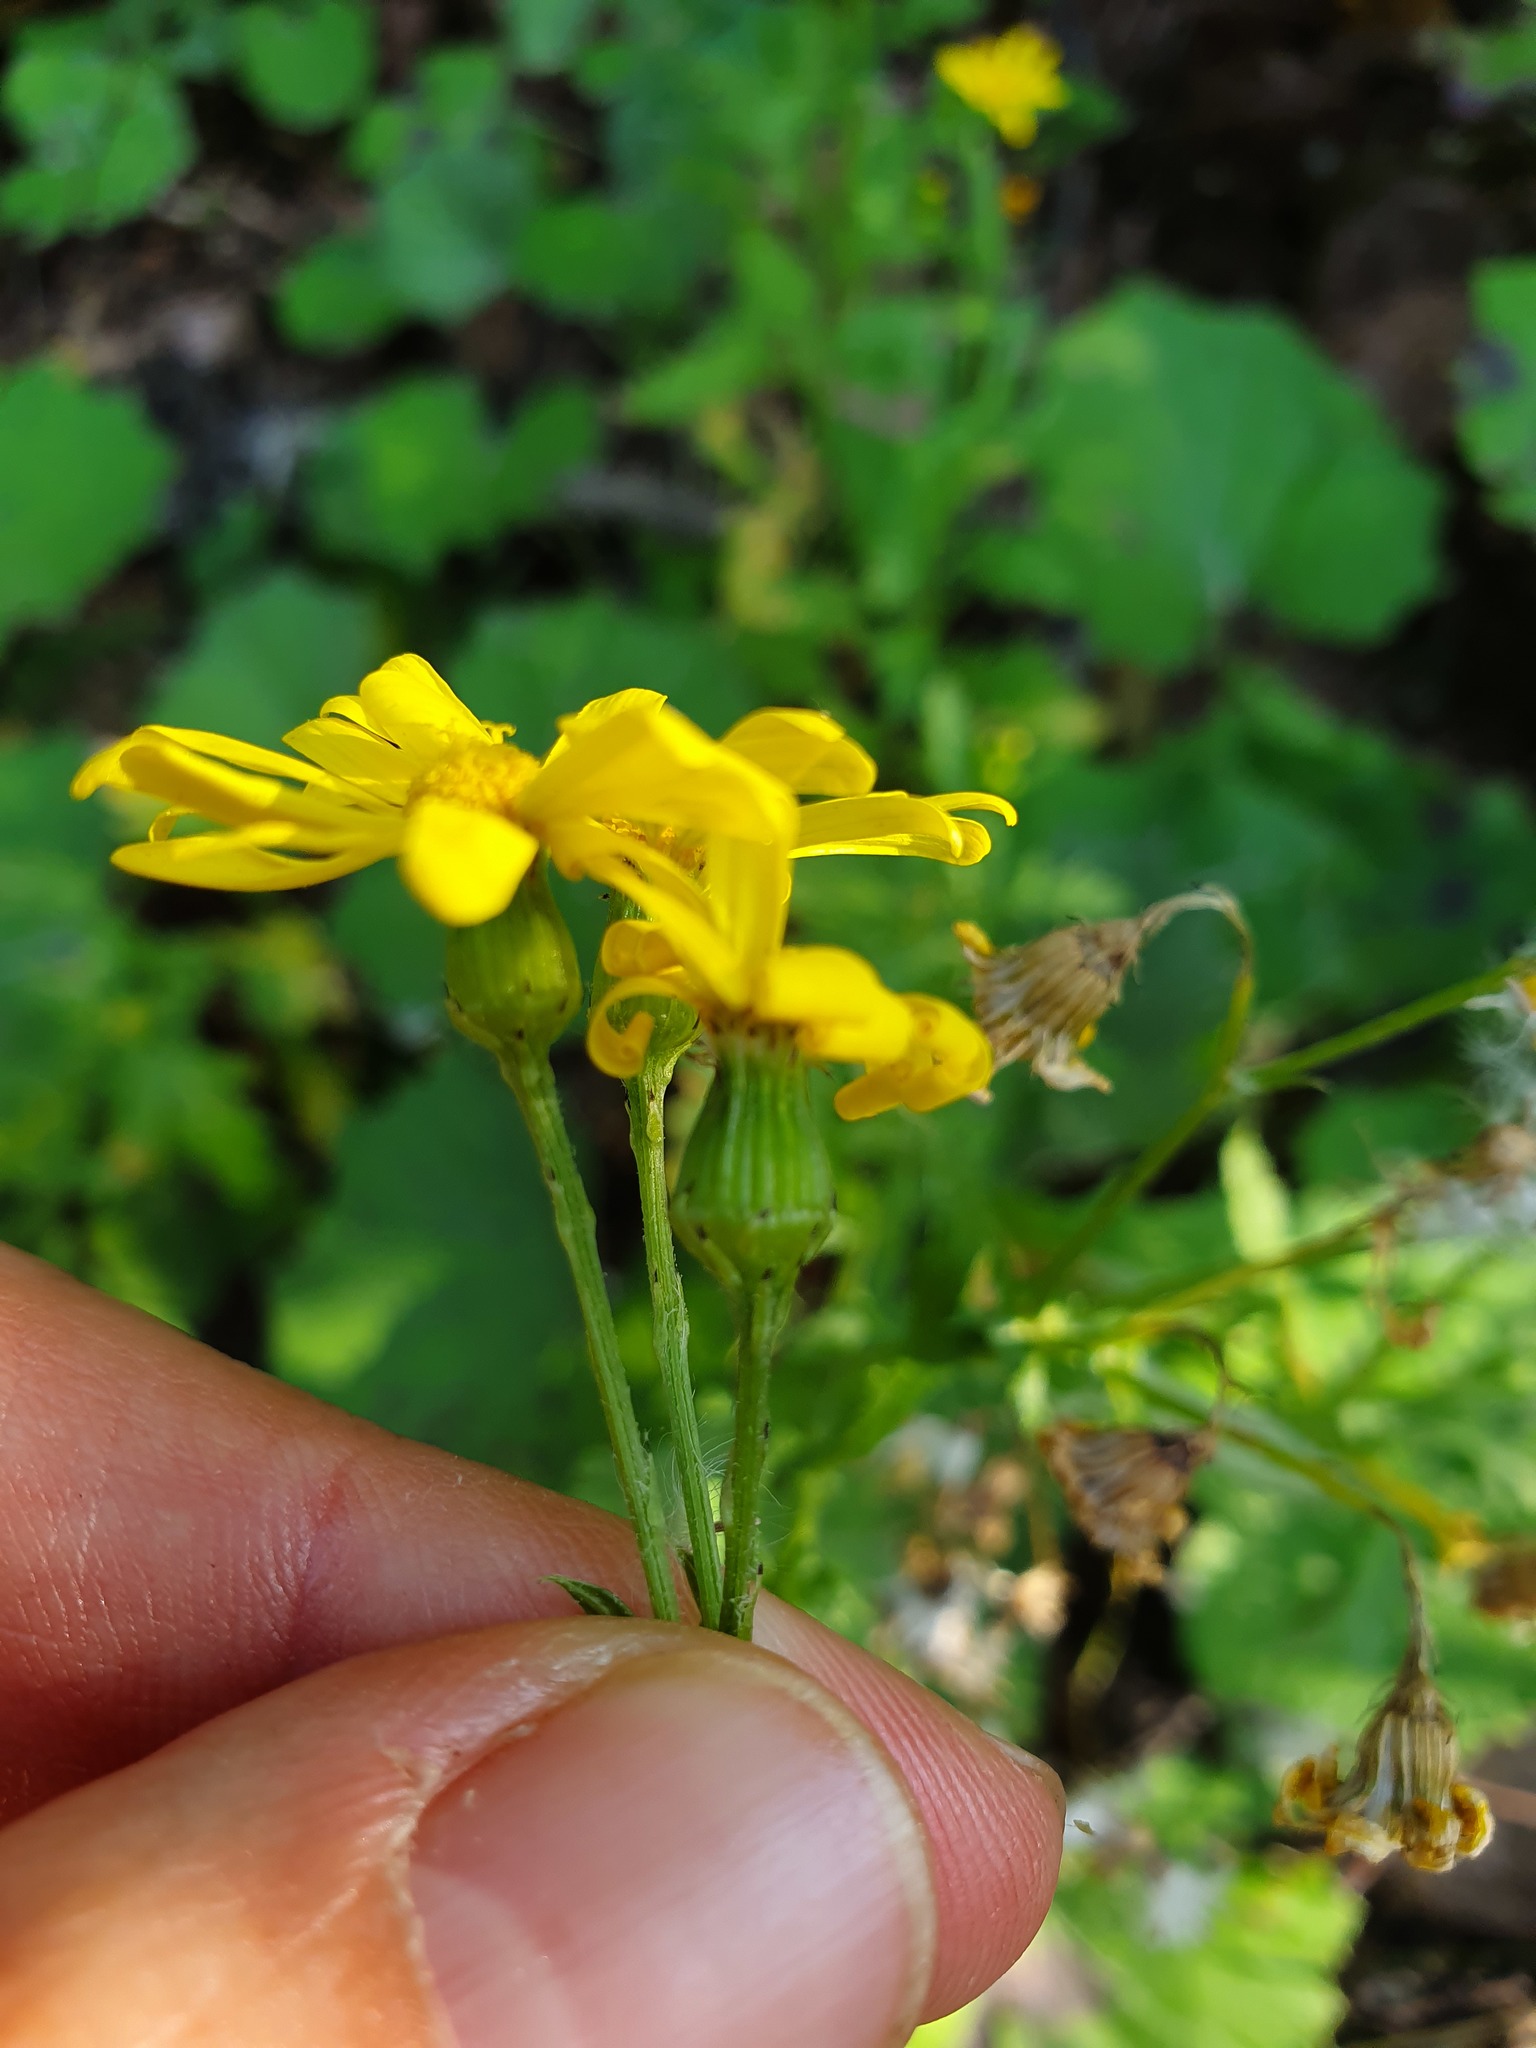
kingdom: Plantae
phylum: Tracheophyta
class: Magnoliopsida
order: Asterales
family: Asteraceae
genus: Senecio
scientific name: Senecio rupestris
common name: Rock ragwort
